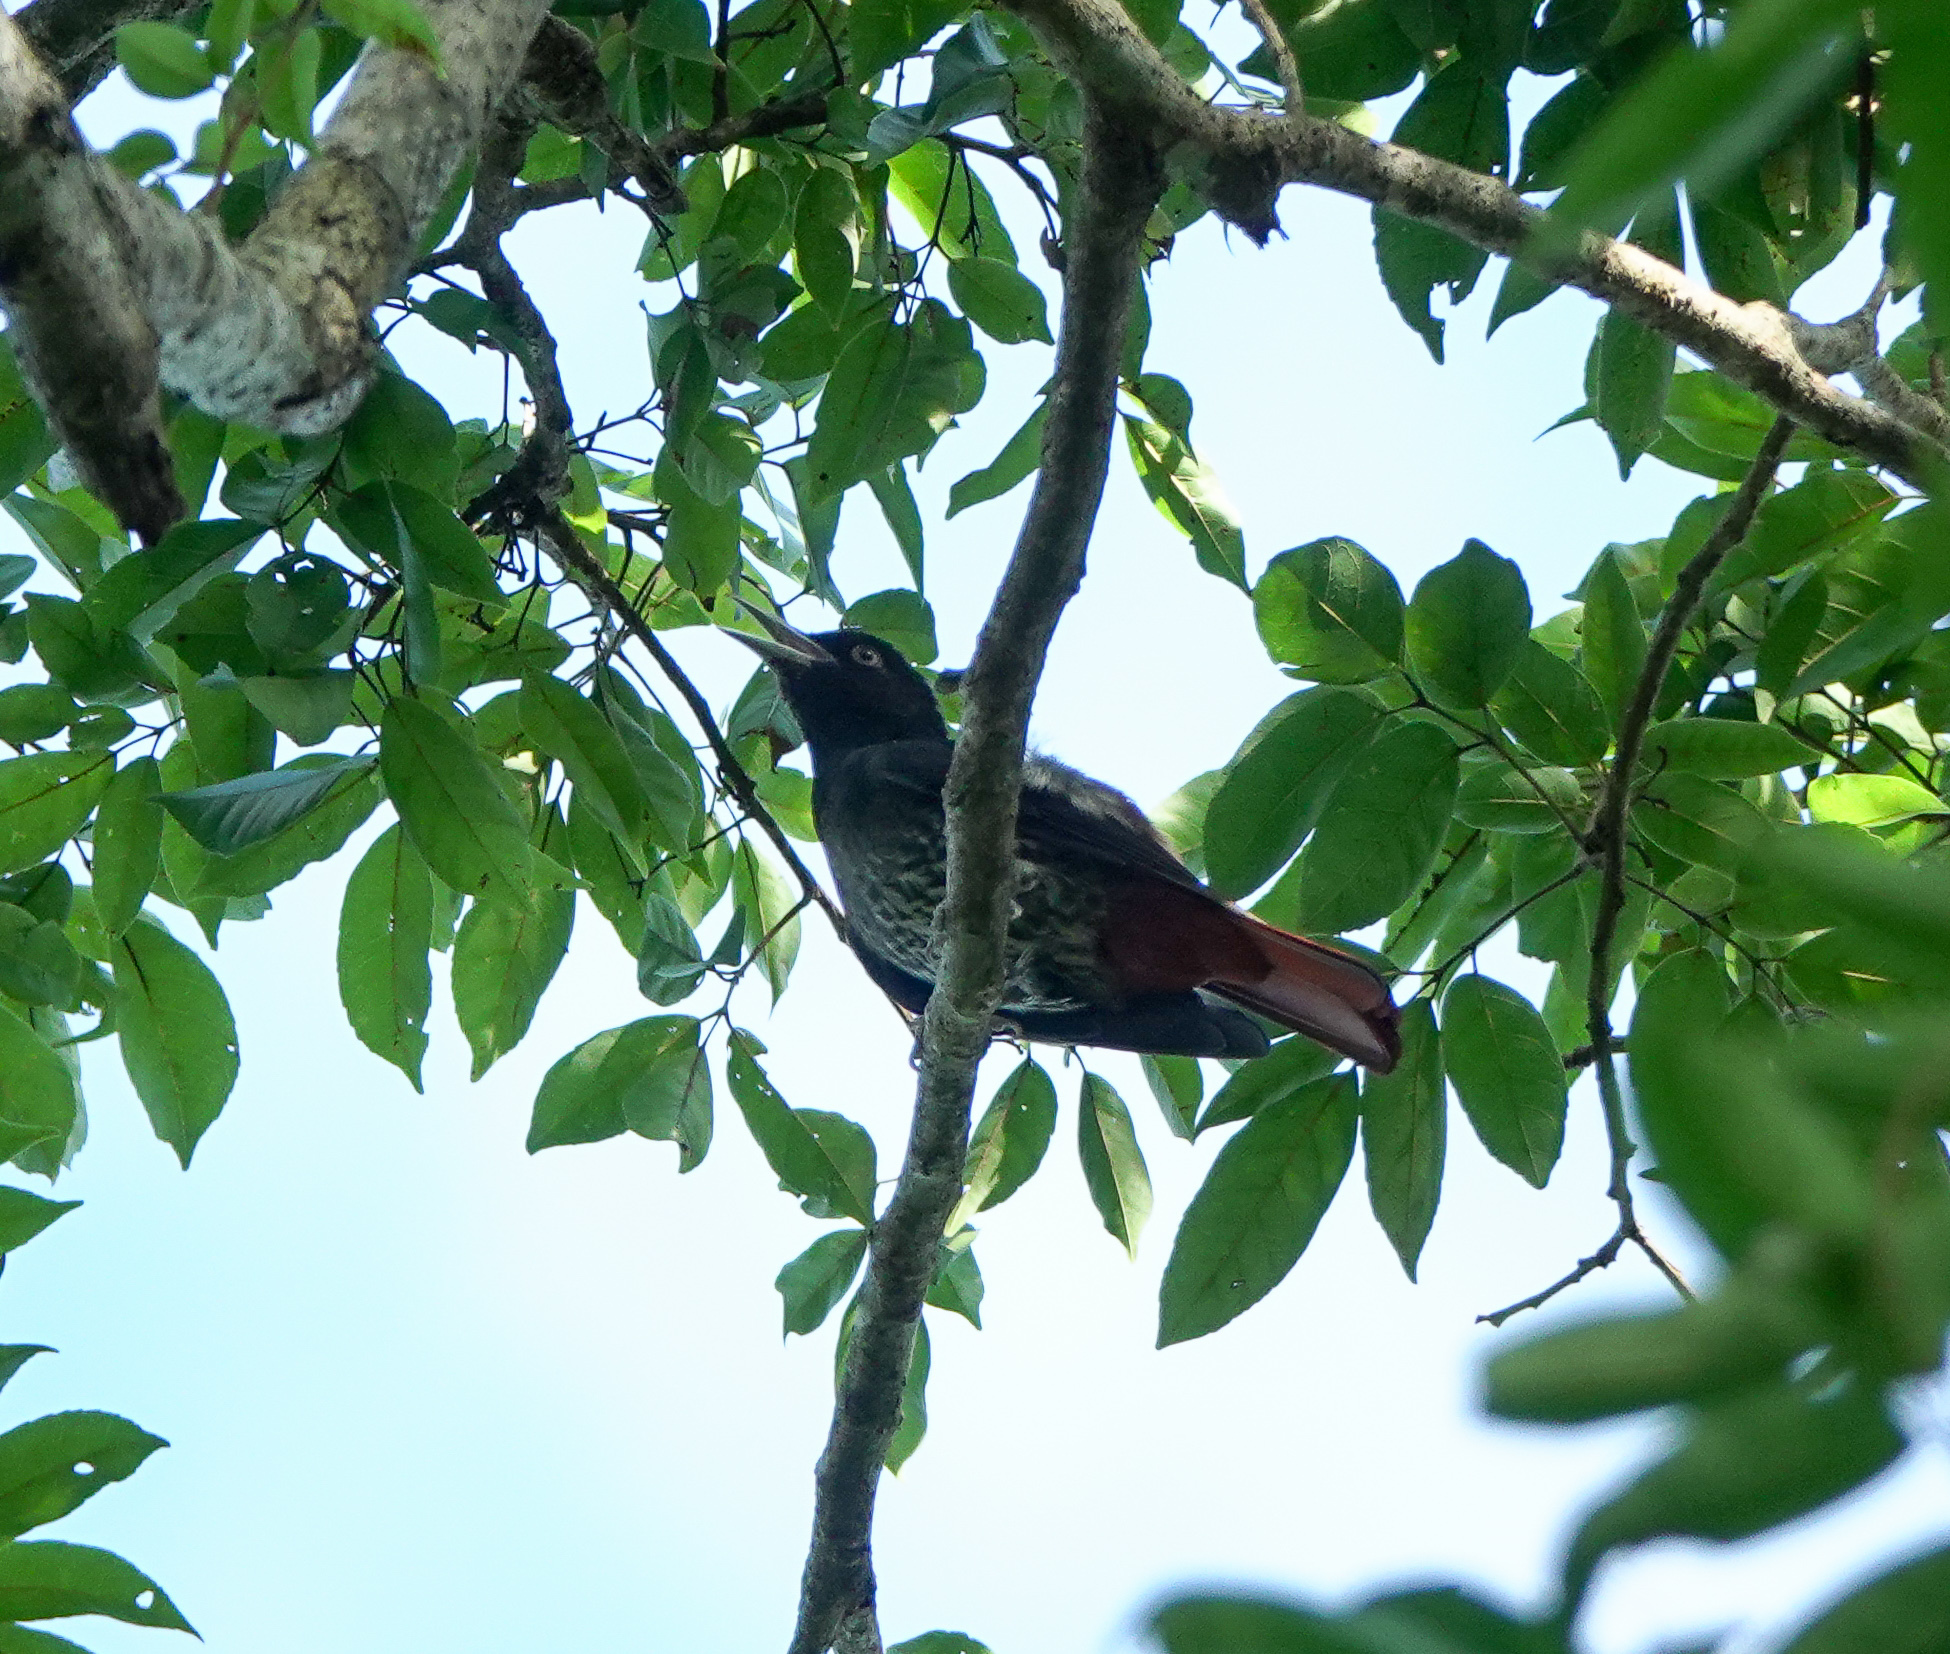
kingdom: Animalia
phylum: Chordata
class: Aves
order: Passeriformes
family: Oriolidae
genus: Oriolus
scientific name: Oriolus traillii
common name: Maroon oriole
